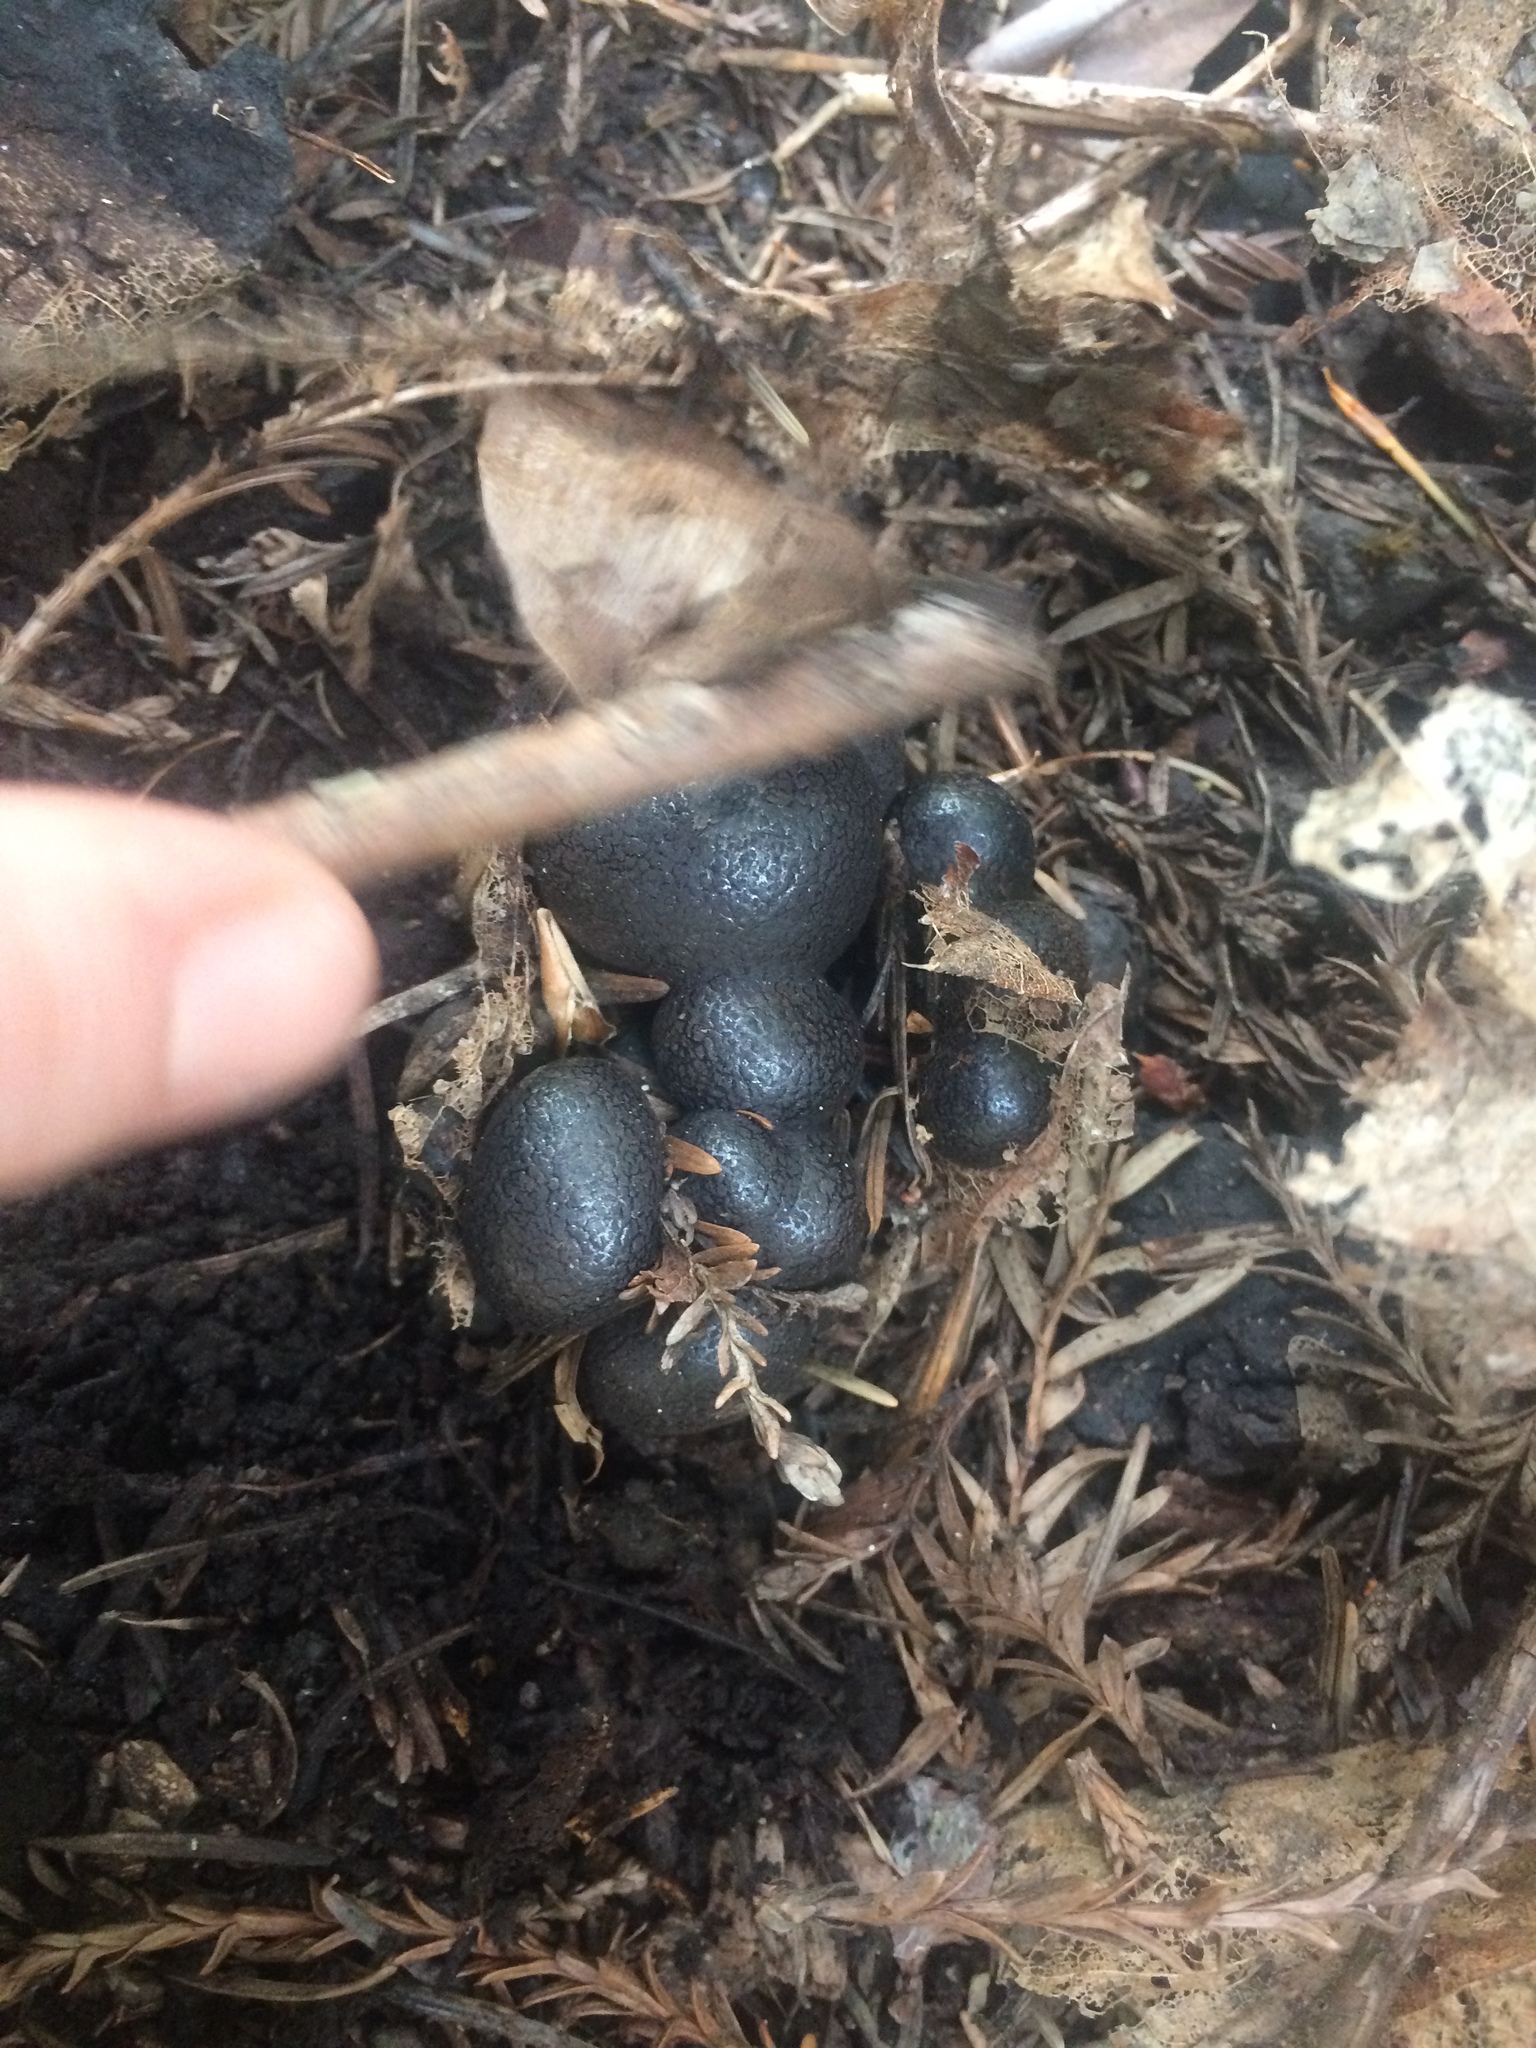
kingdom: Protozoa
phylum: Mycetozoa
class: Myxomycetes
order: Cribrariales
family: Tubiferaceae
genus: Lycogala
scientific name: Lycogala epidendrum
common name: Wolf's milk
